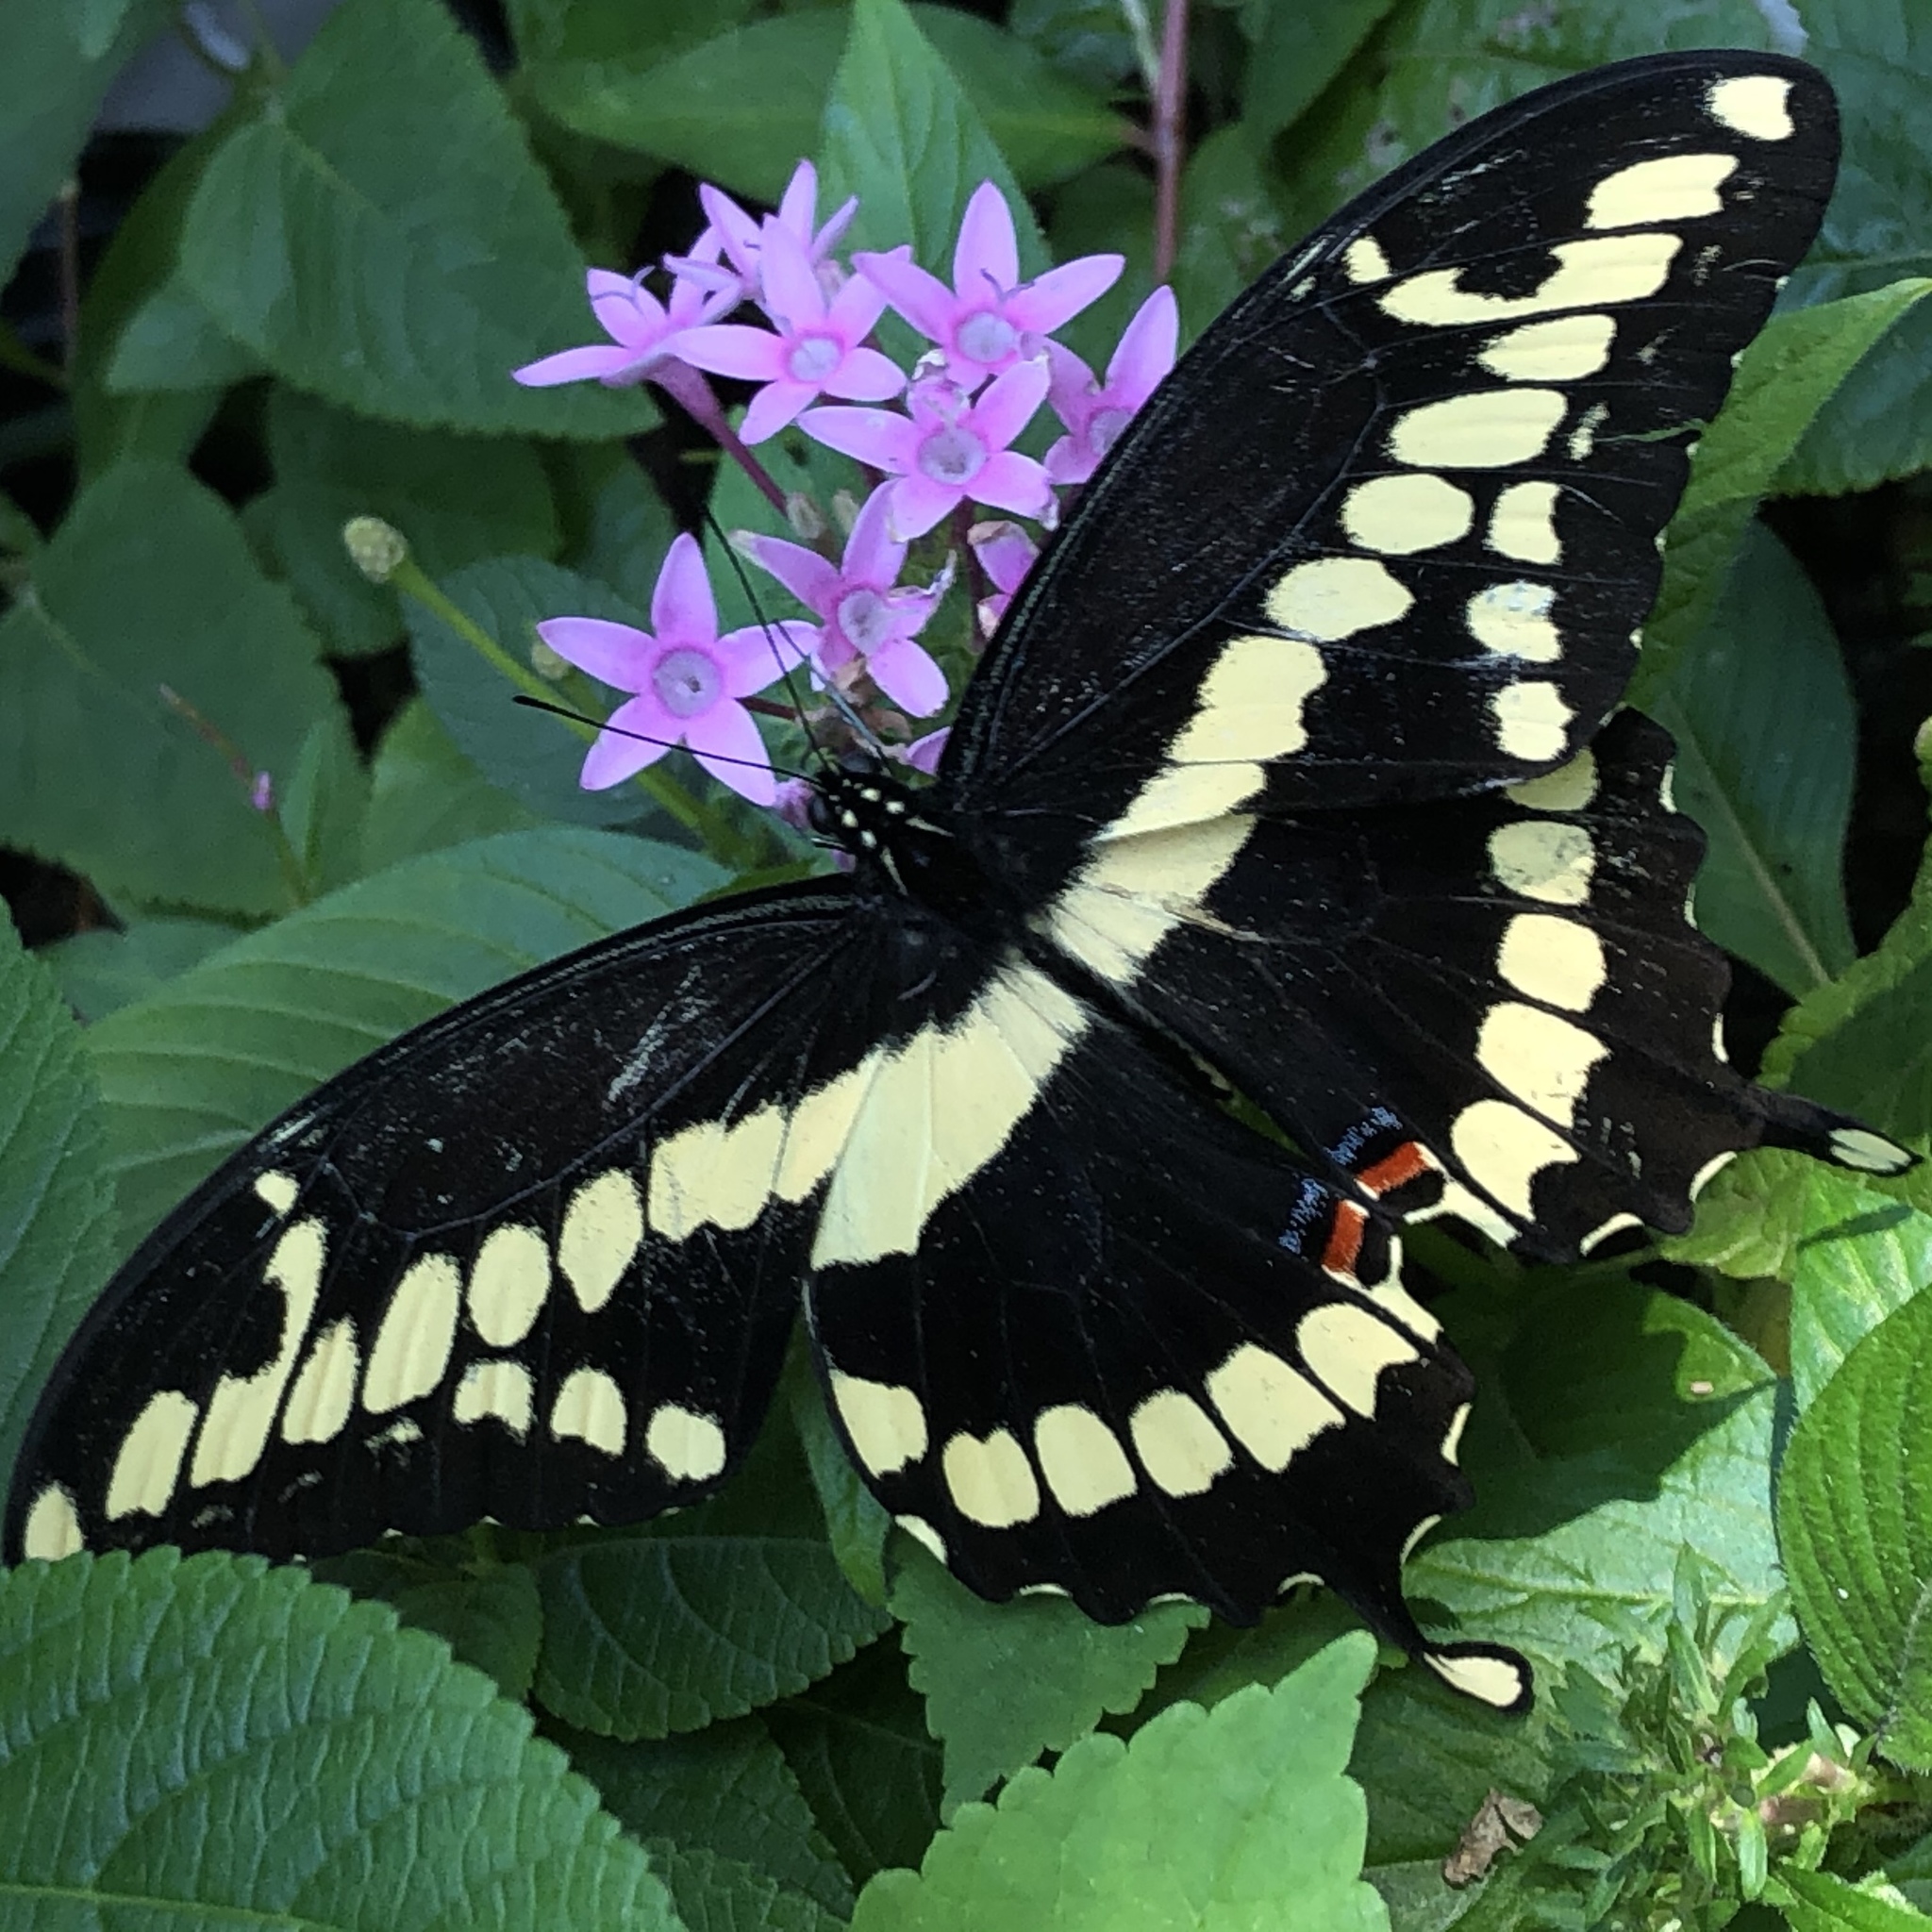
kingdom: Animalia
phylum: Arthropoda
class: Insecta
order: Lepidoptera
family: Papilionidae
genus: Papilio
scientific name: Papilio cresphontes
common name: Giant swallowtail
